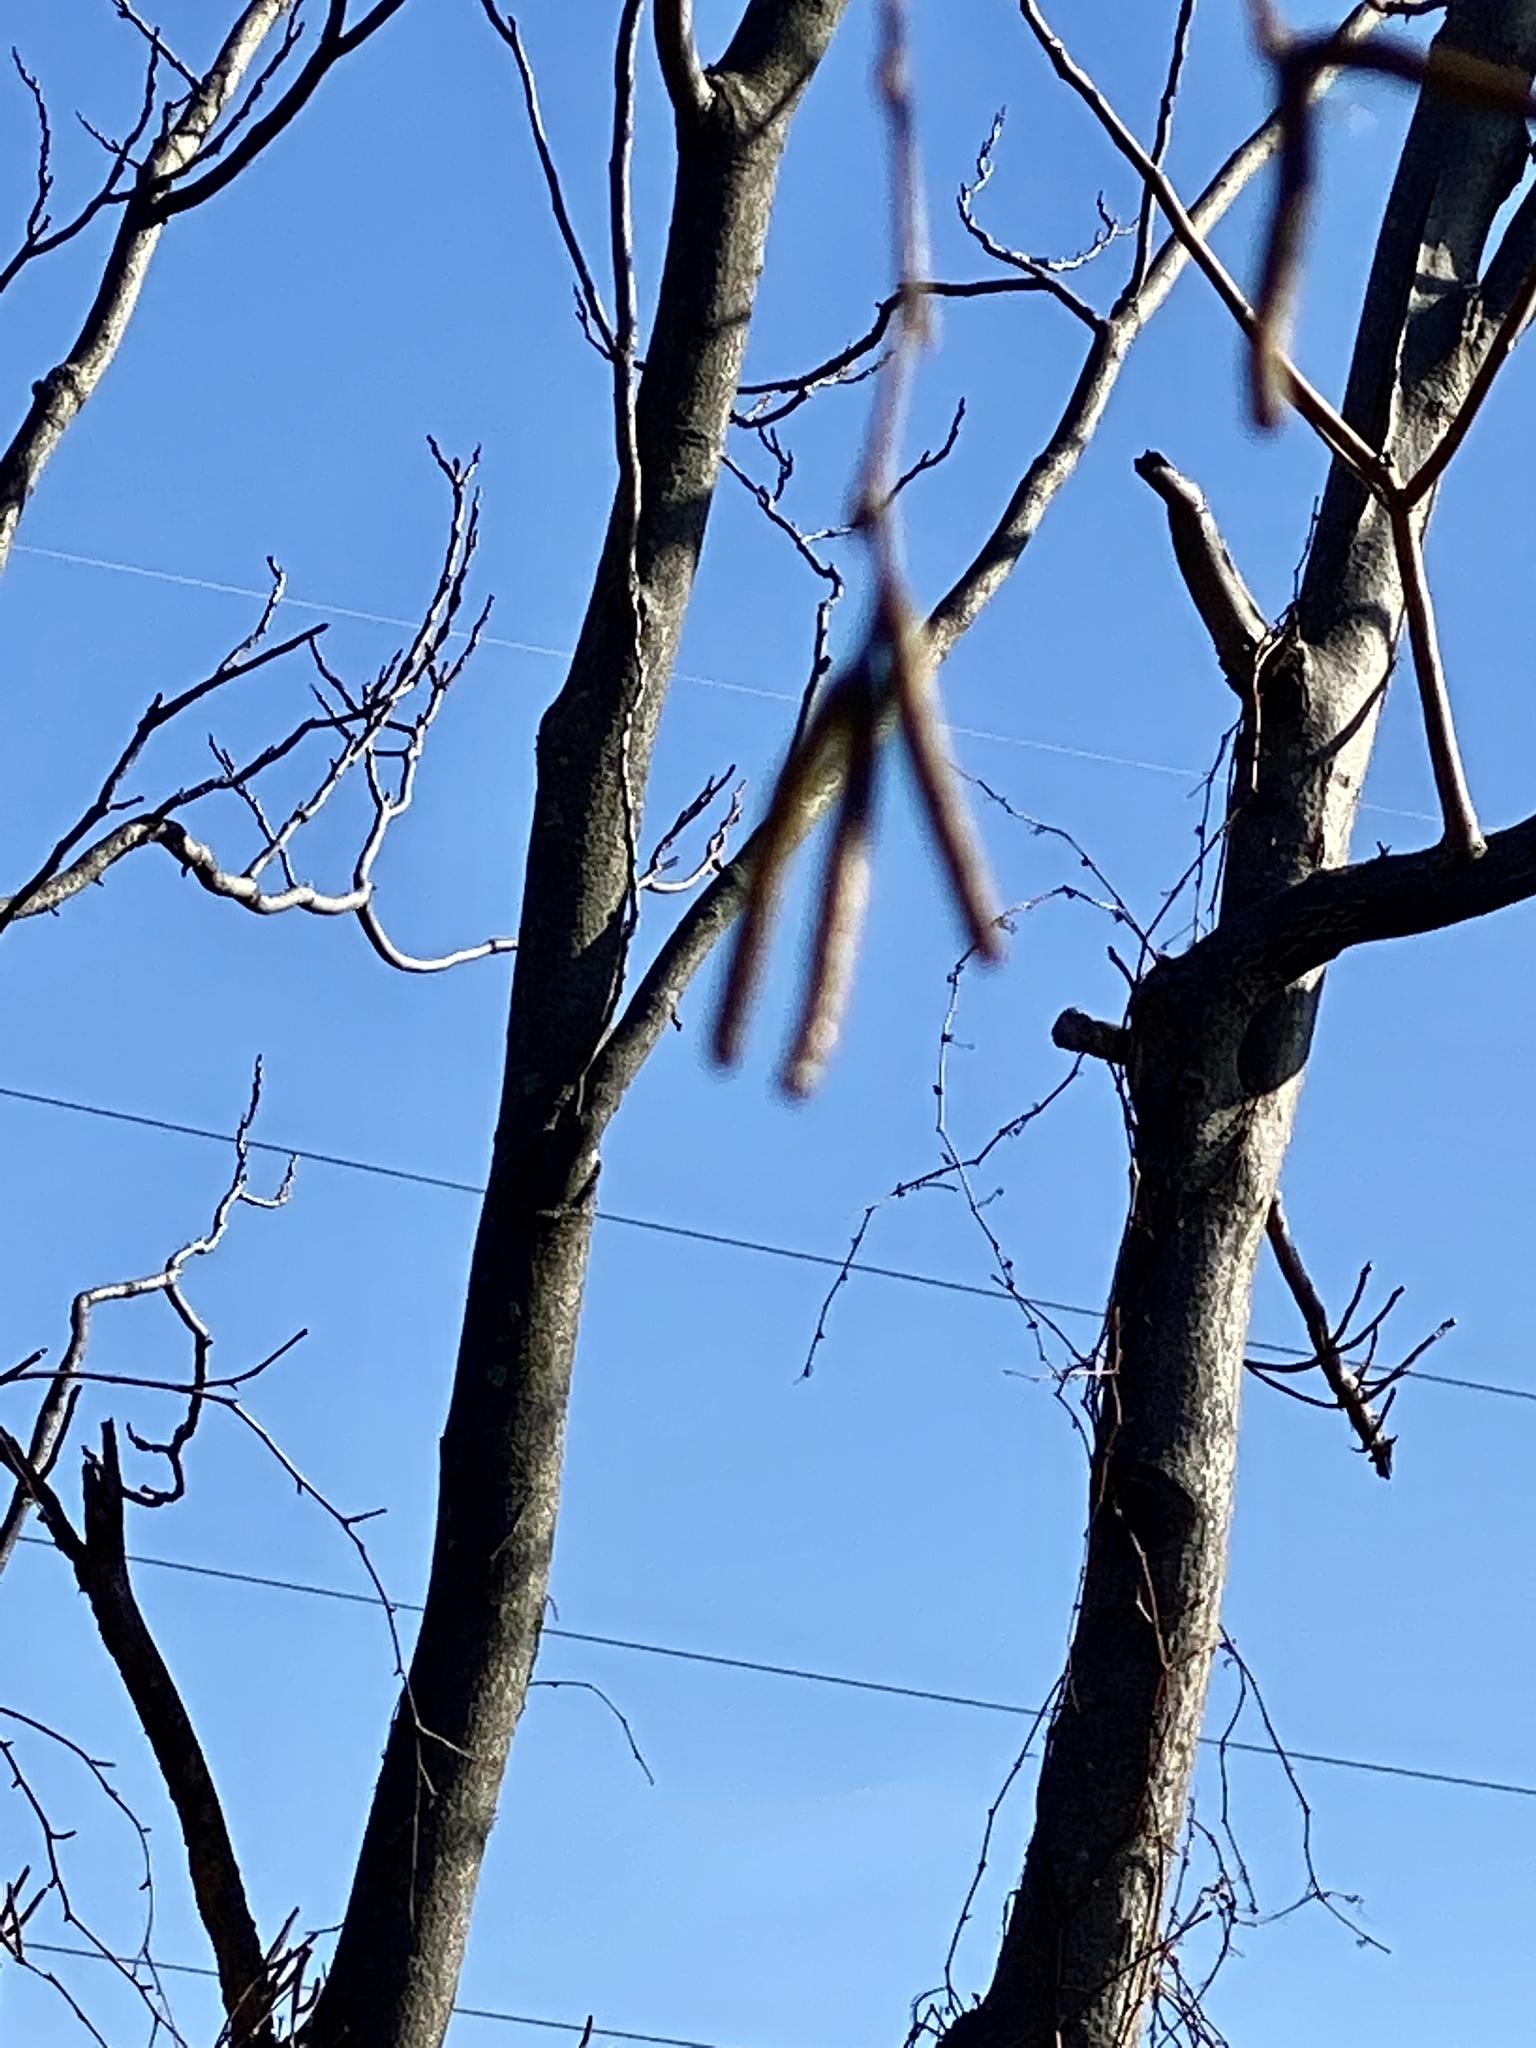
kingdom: Plantae
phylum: Tracheophyta
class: Magnoliopsida
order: Fagales
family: Betulaceae
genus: Betula
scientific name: Betula nigra
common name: Black birch
